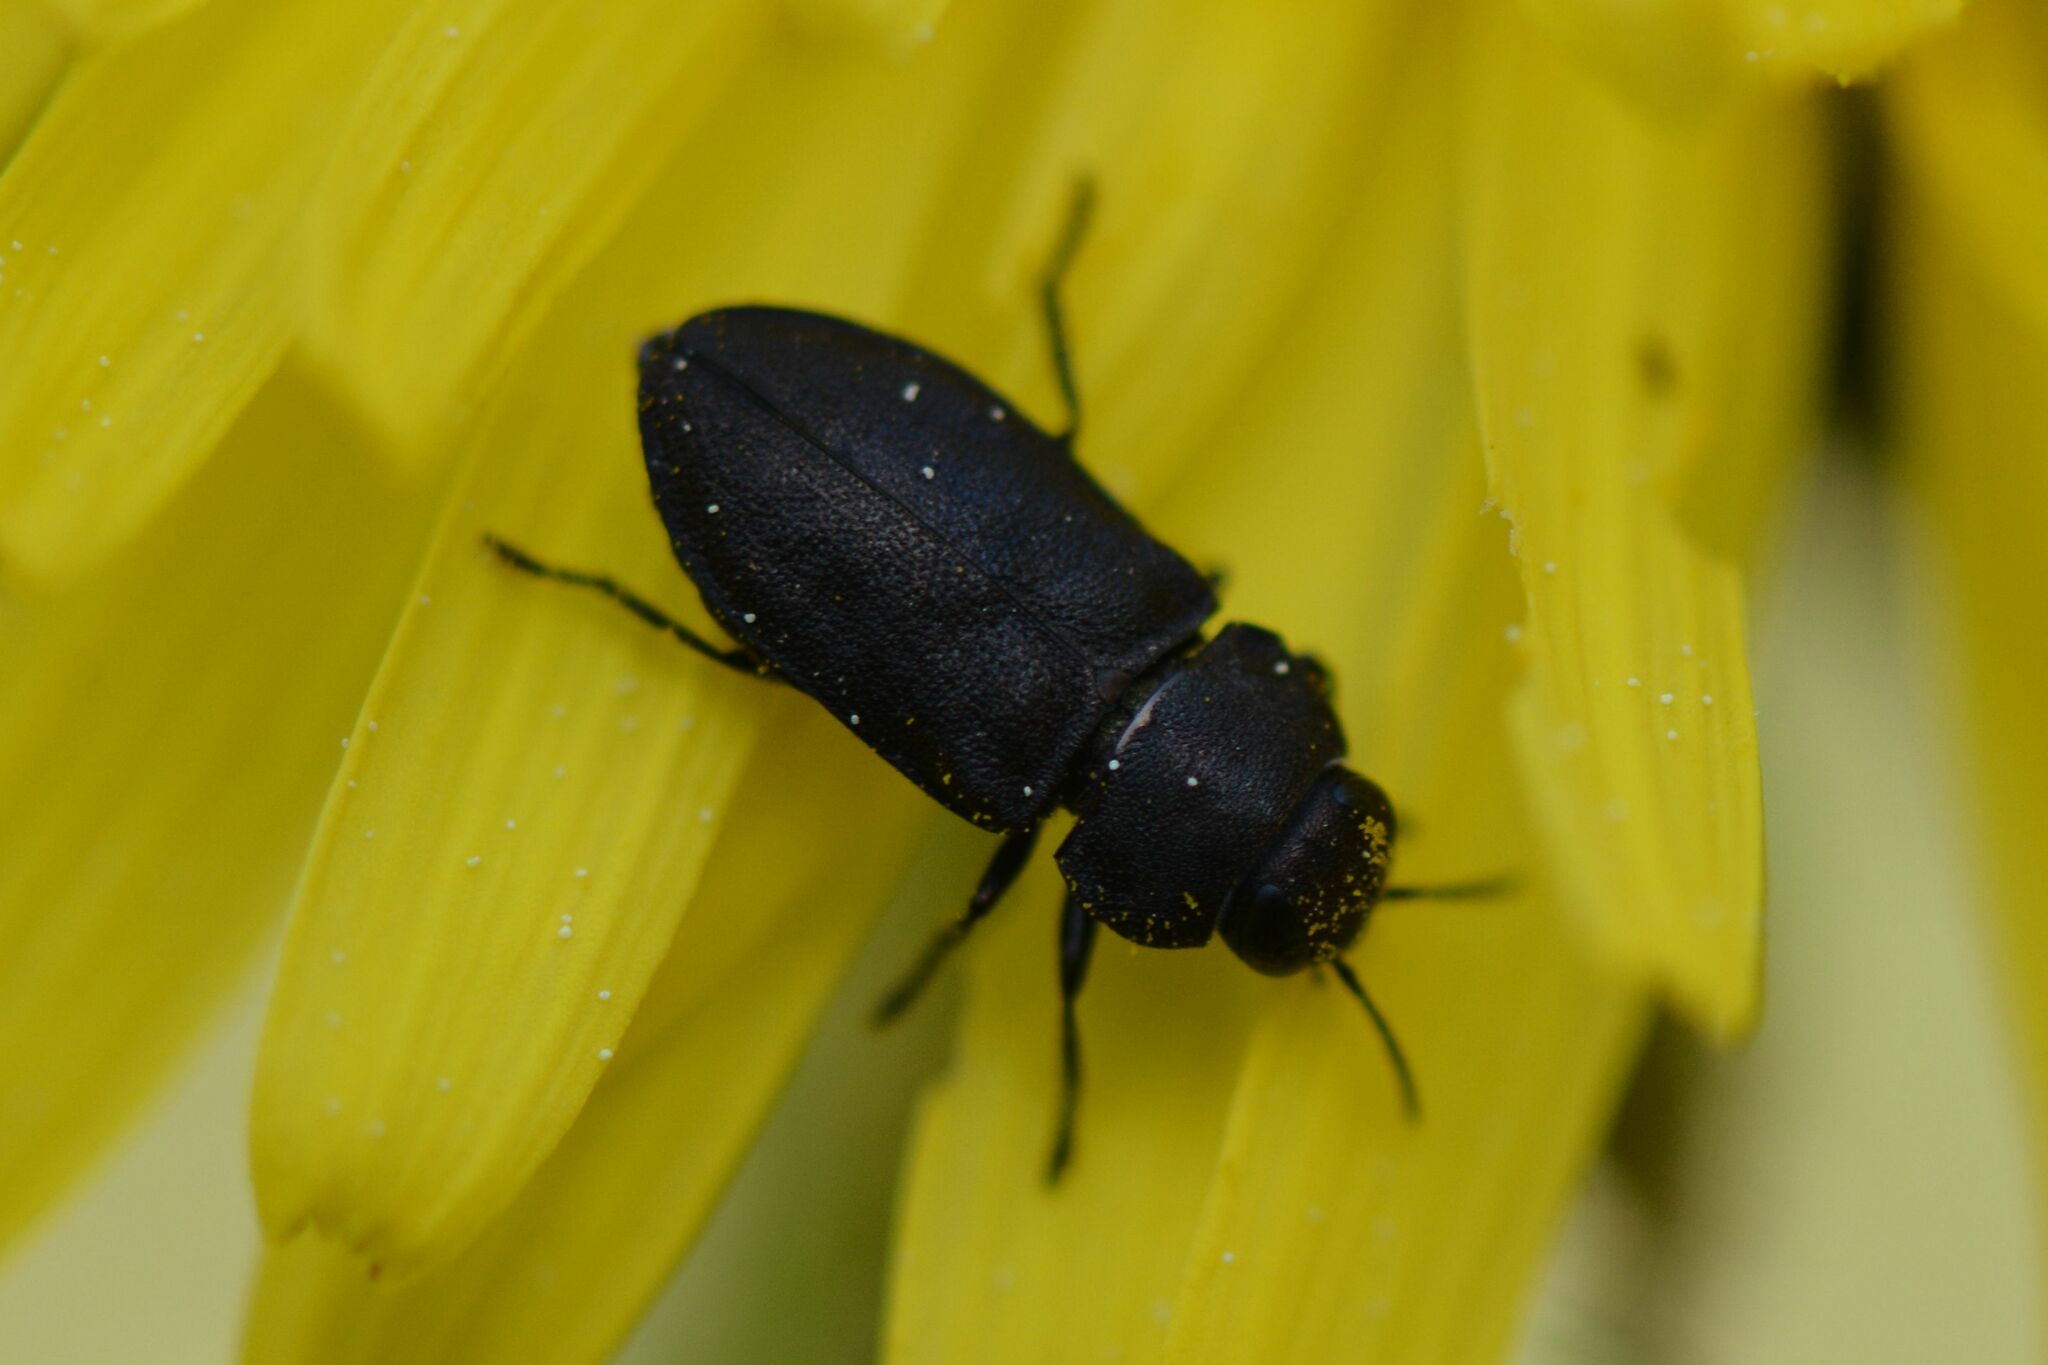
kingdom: Animalia
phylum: Arthropoda
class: Insecta
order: Coleoptera
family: Buprestidae
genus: Anthaxia
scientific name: Anthaxia helvetica
